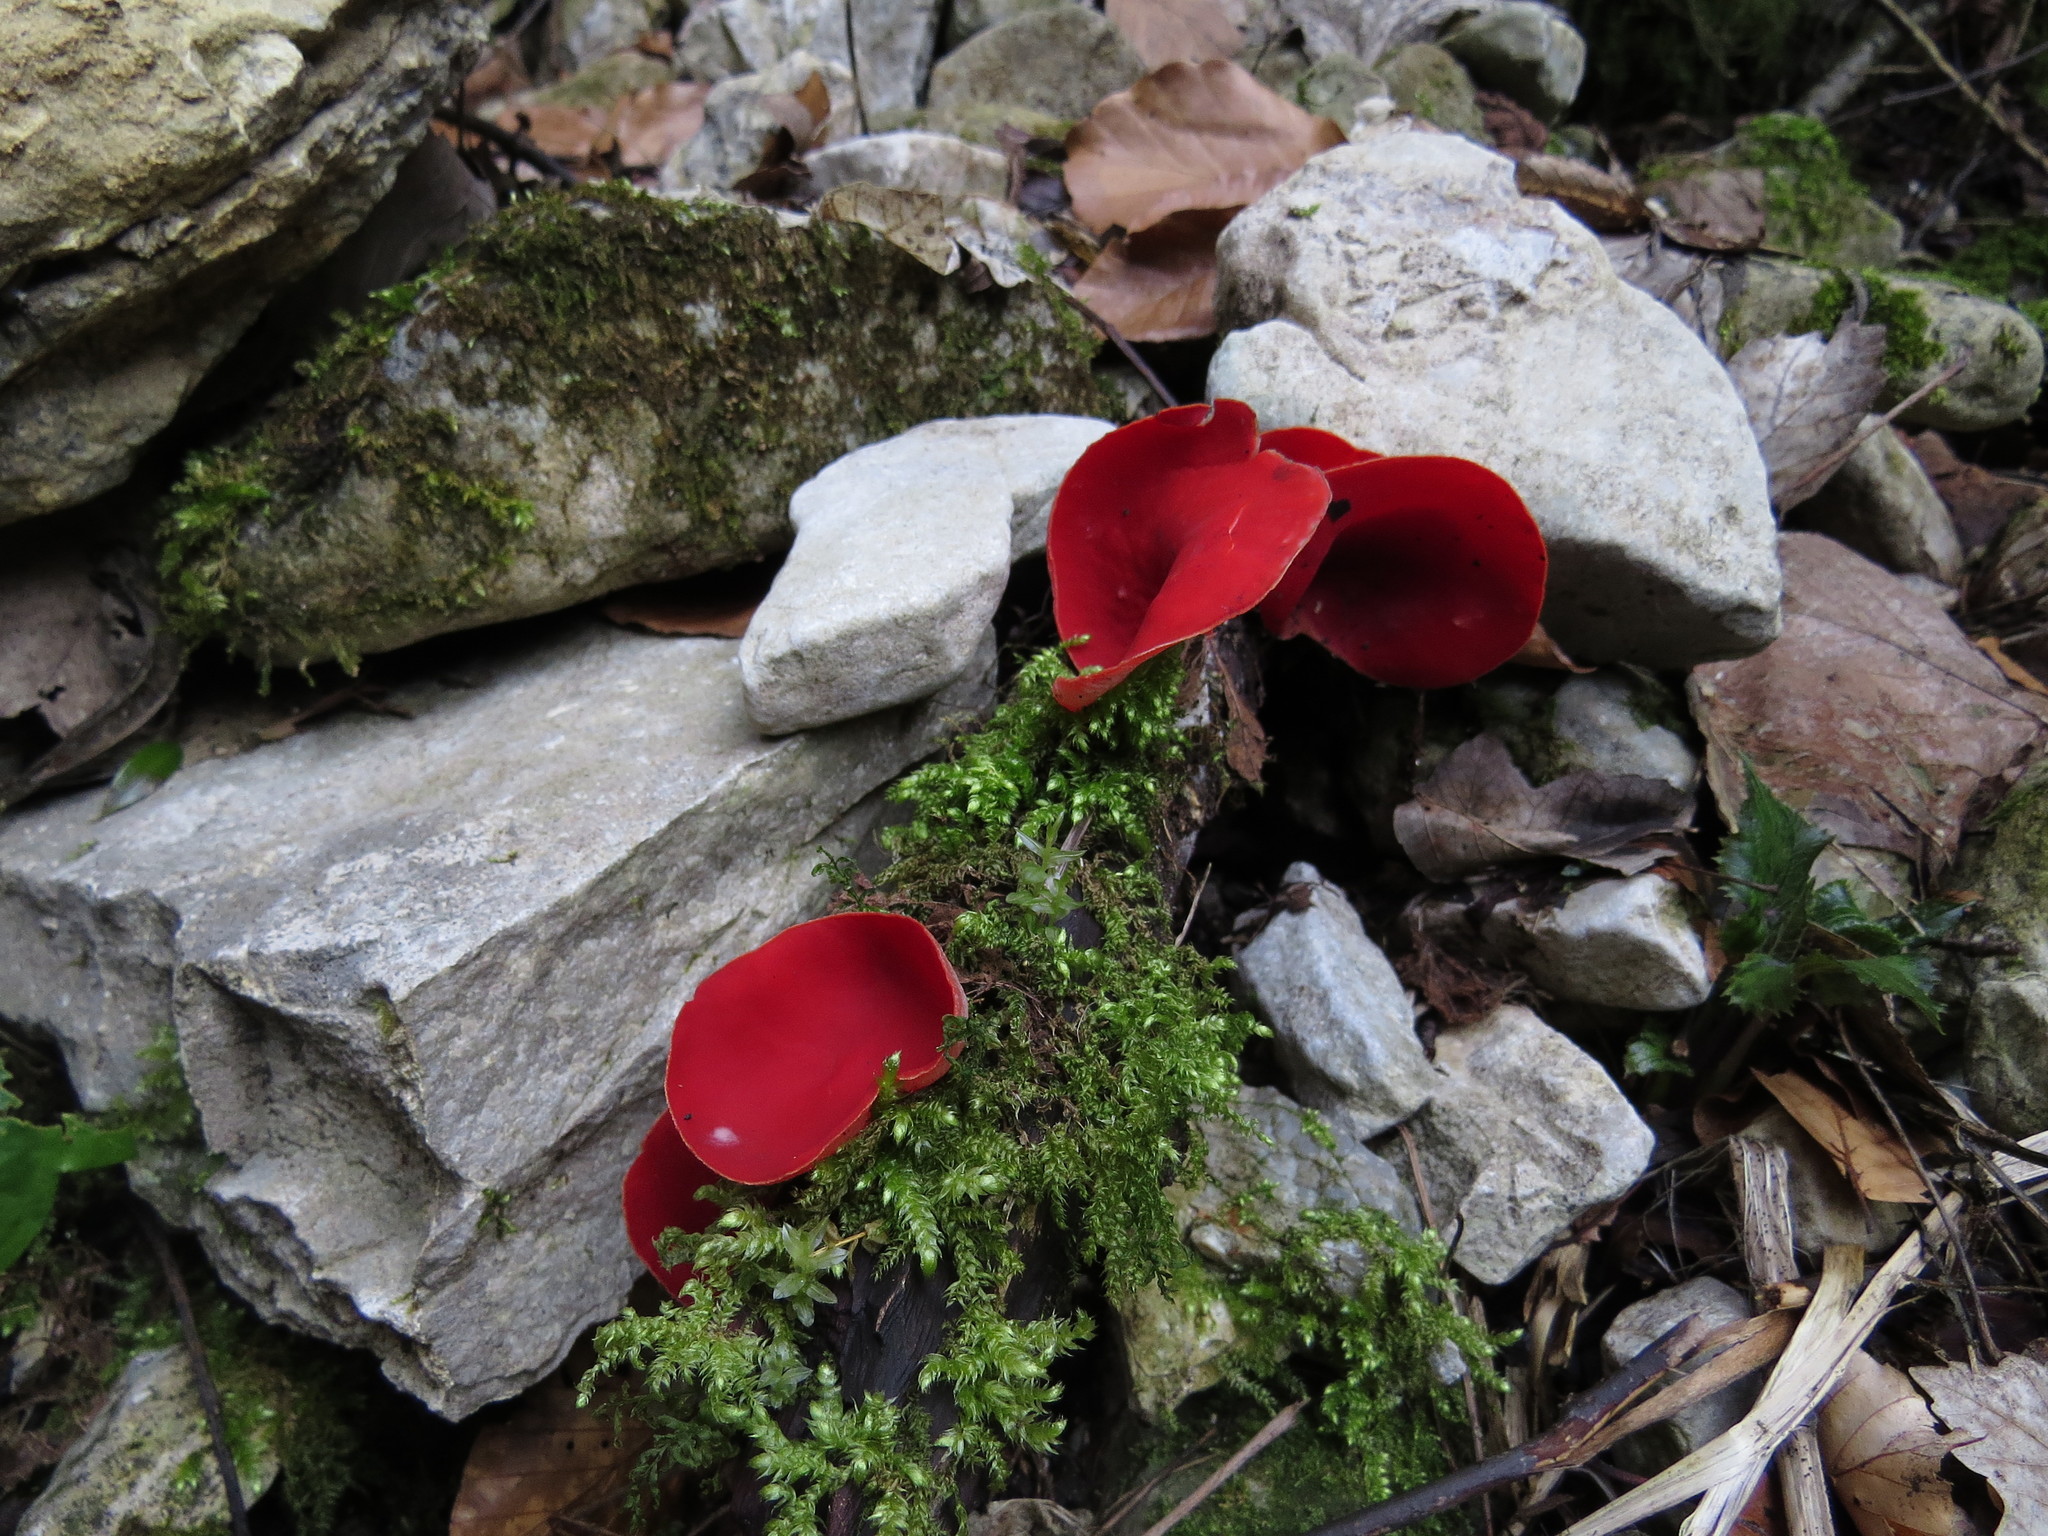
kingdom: Fungi
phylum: Ascomycota
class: Pezizomycetes
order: Pezizales
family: Sarcoscyphaceae
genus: Sarcoscypha
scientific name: Sarcoscypha
